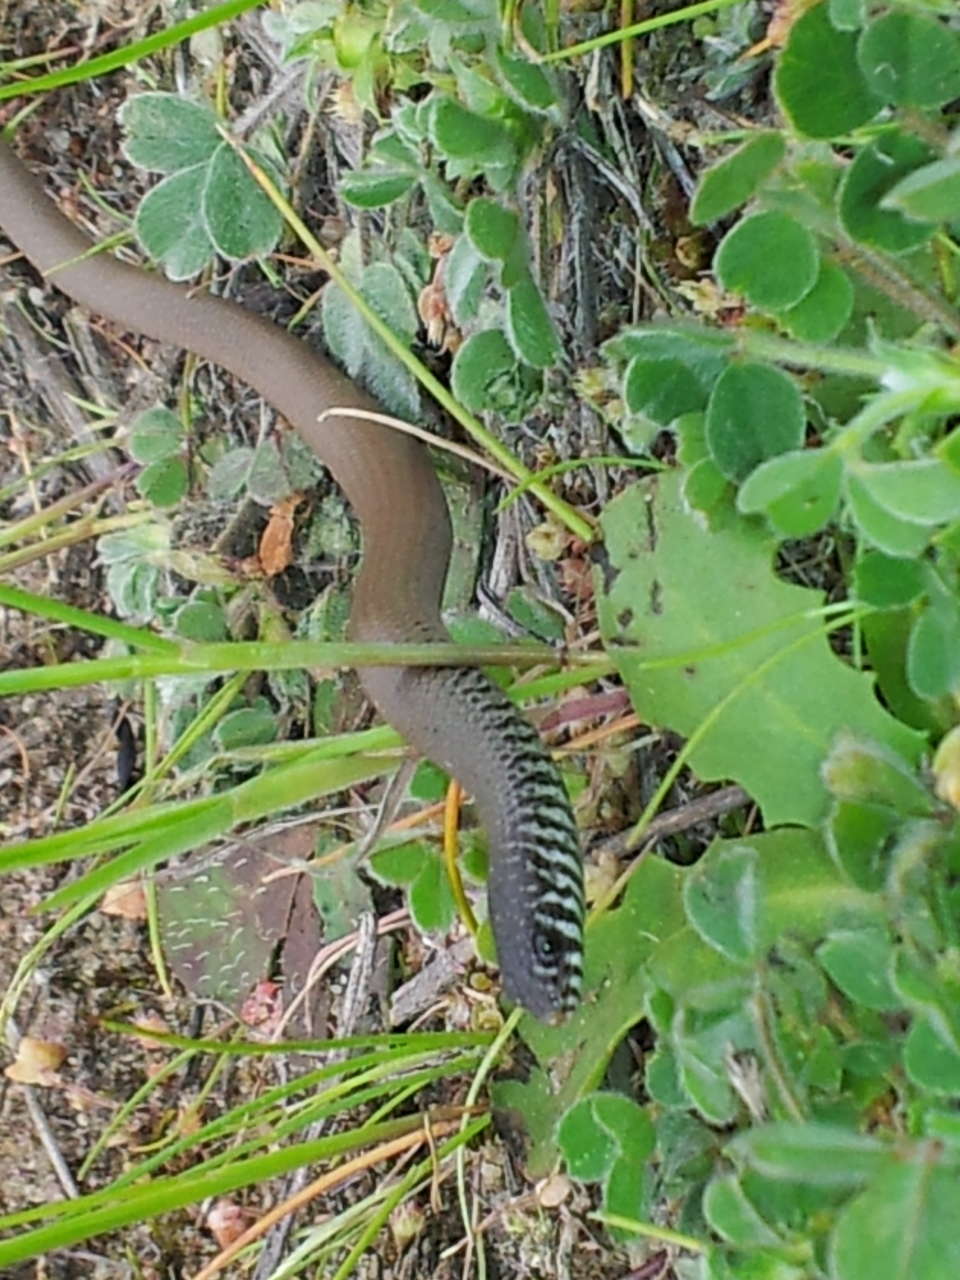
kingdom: Animalia
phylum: Chordata
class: Squamata
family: Pygopodidae
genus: Delma
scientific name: Delma australis
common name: Marble-faced delma
